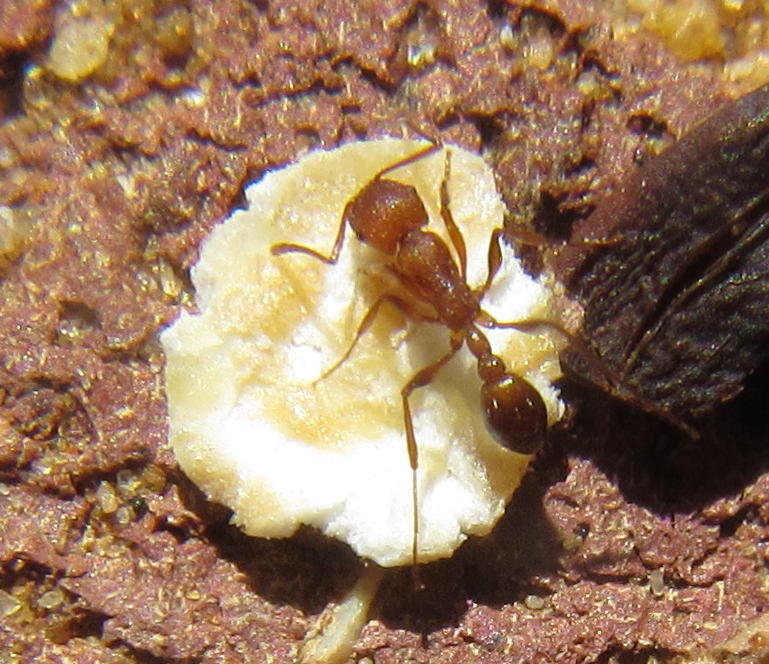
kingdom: Animalia
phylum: Arthropoda
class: Insecta
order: Hymenoptera
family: Formicidae
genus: Tetramorium
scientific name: Tetramorium sericeiventre
